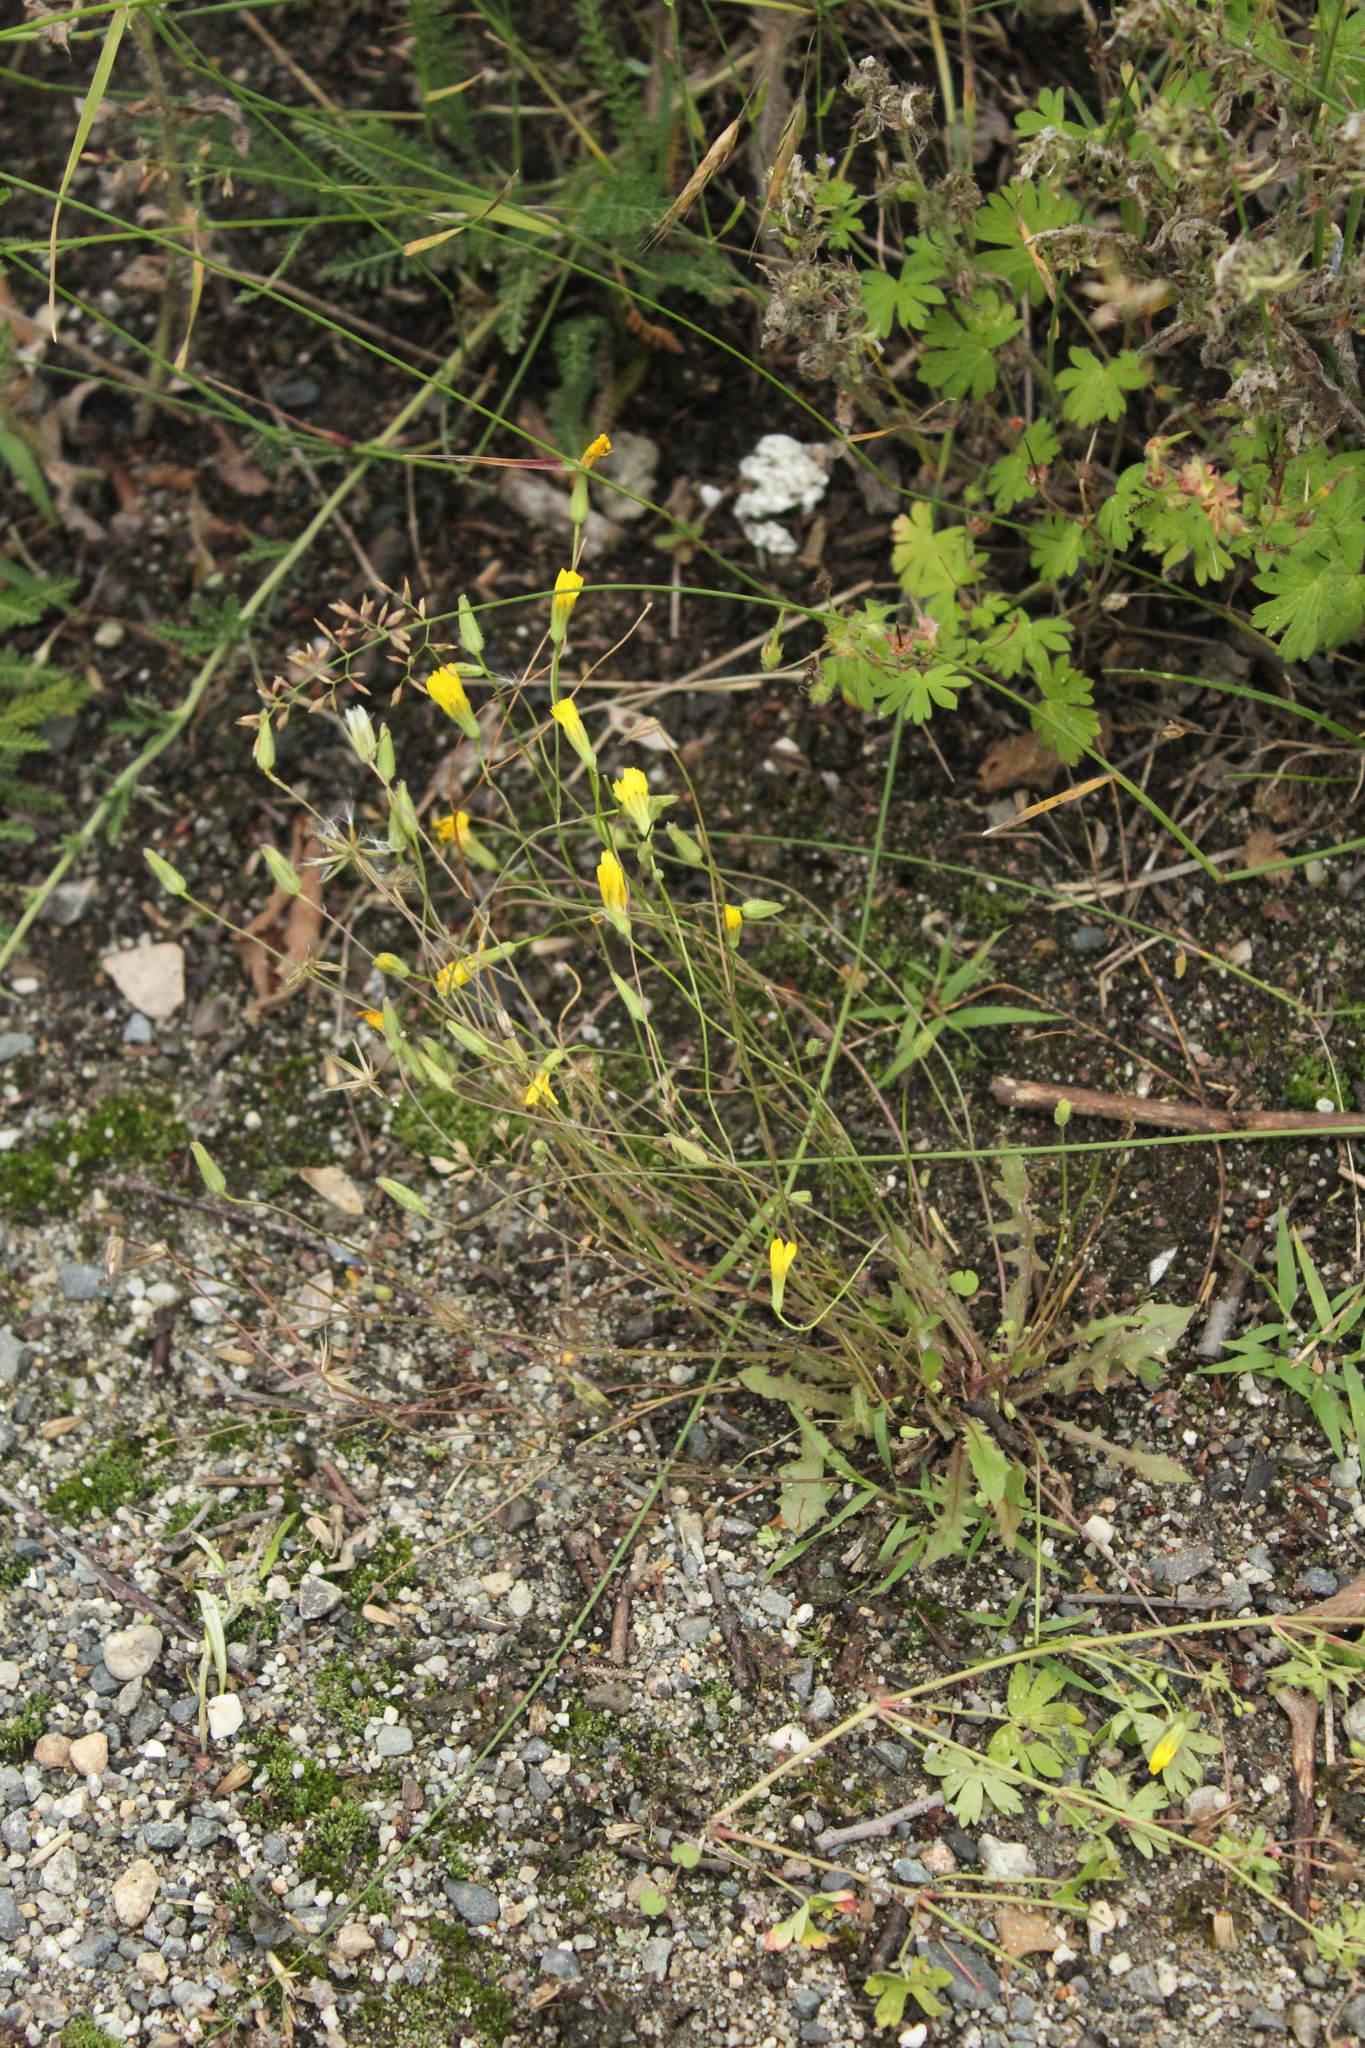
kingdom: Plantae
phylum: Tracheophyta
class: Magnoliopsida
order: Asterales
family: Asteraceae
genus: Crepis
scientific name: Crepis sancta
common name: Hawk's-beard
